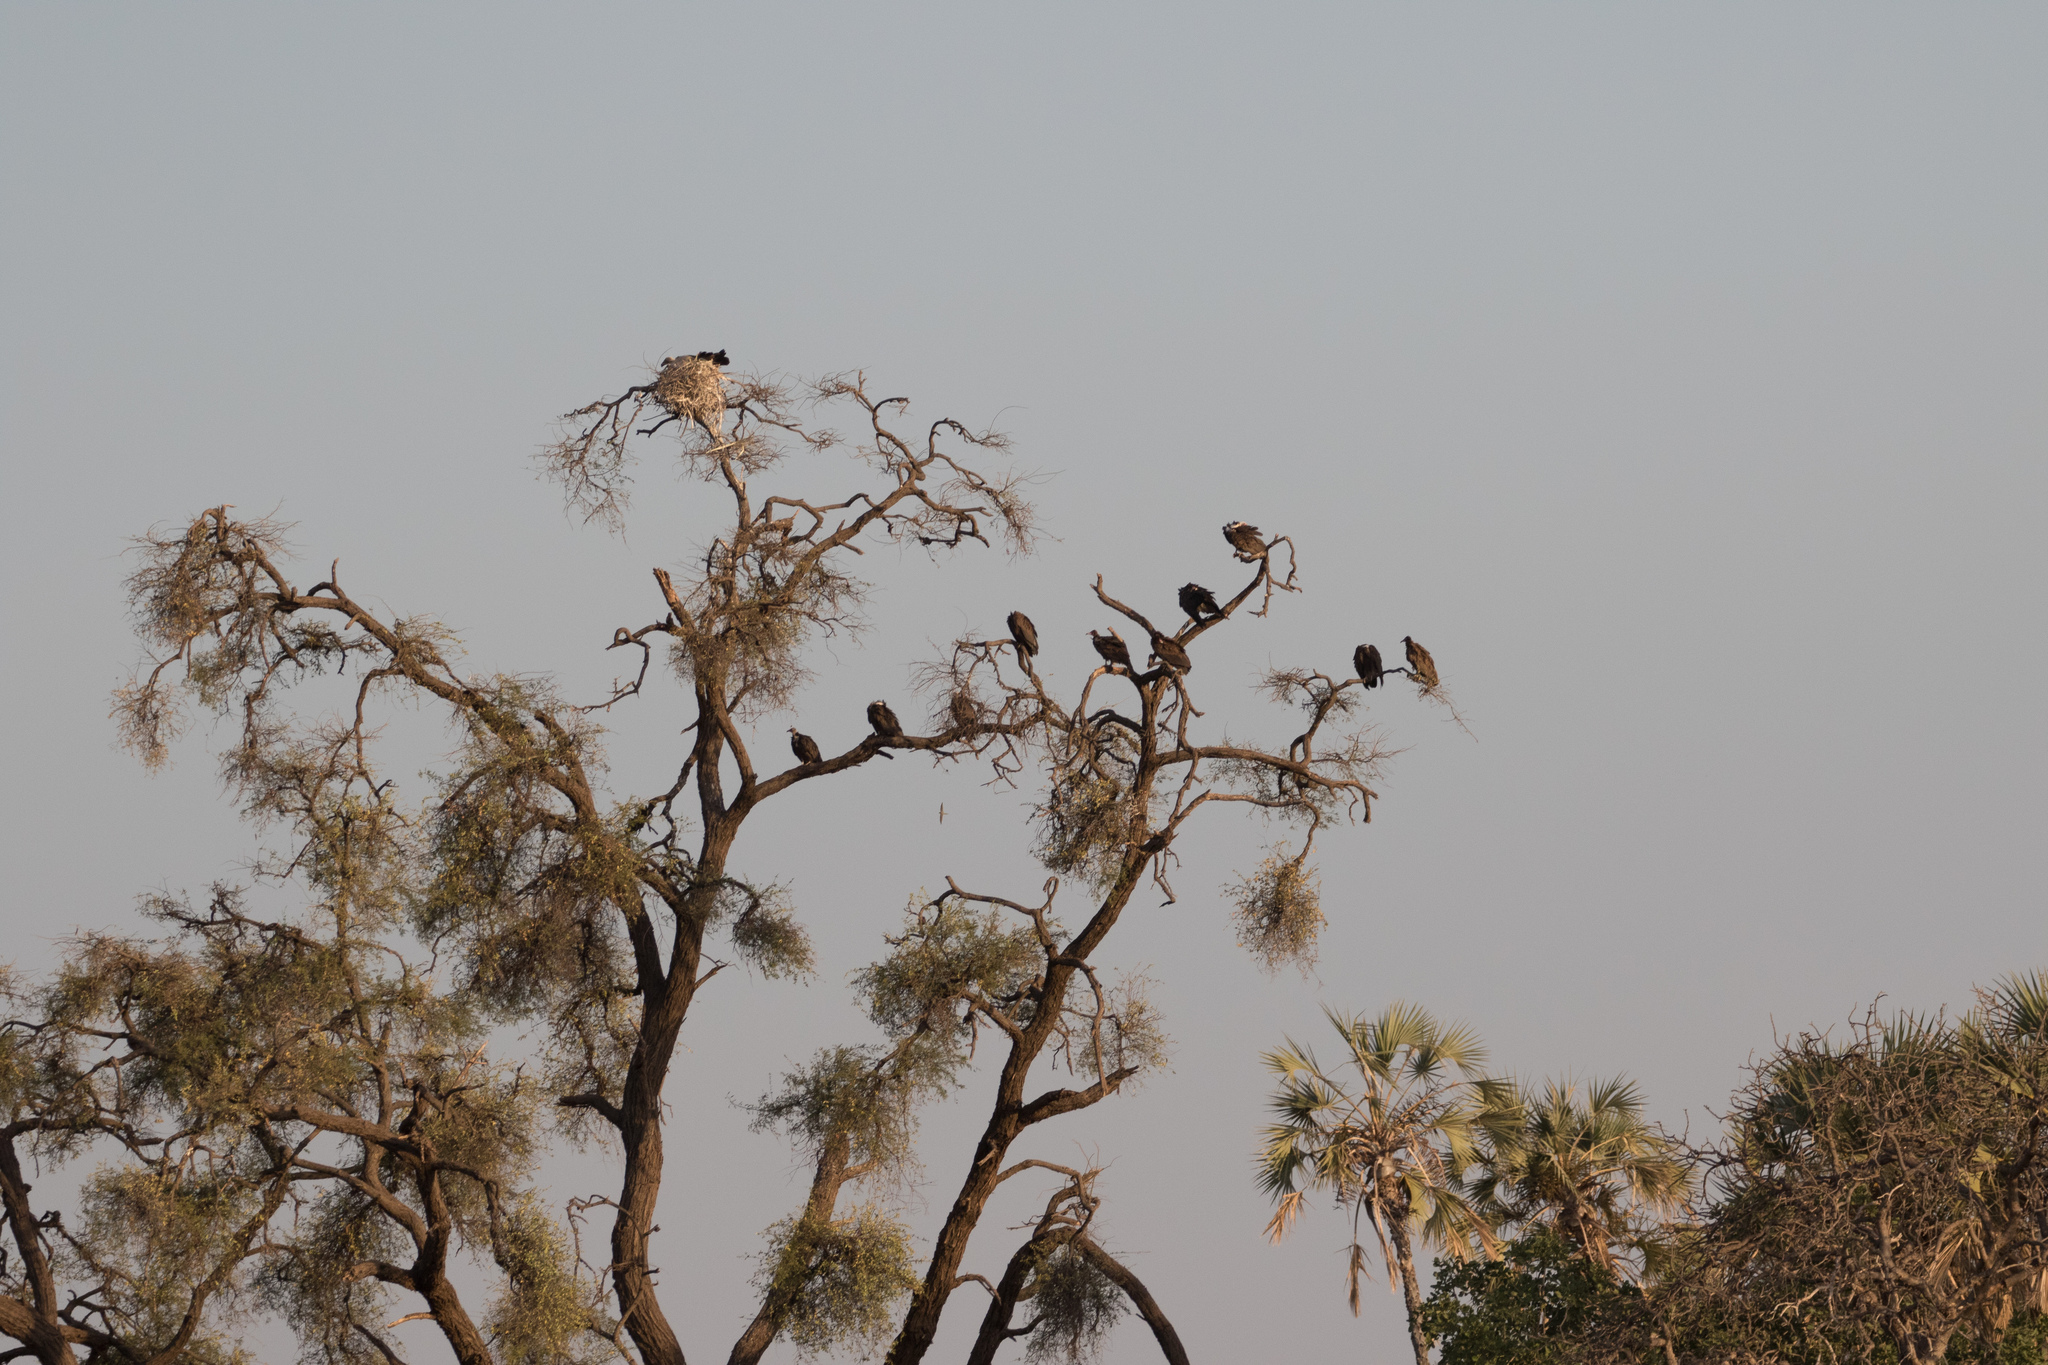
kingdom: Animalia
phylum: Chordata
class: Aves
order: Accipitriformes
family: Accipitridae
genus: Necrosyrtes
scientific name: Necrosyrtes monachus
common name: Hooded vulture
